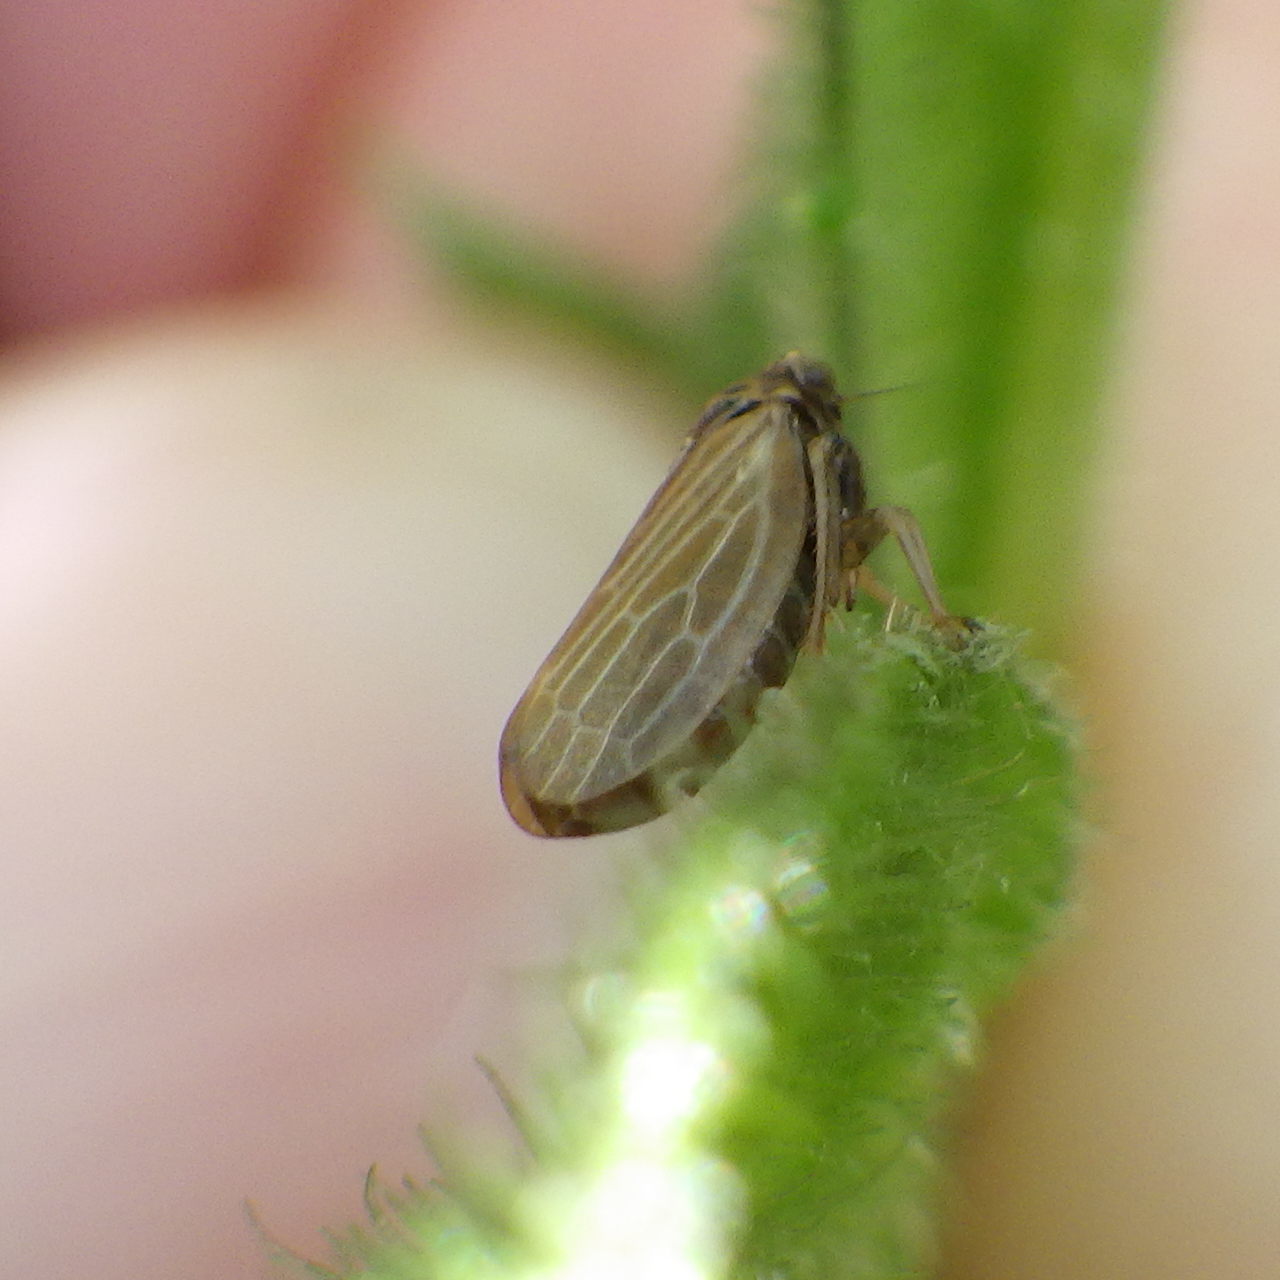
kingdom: Animalia
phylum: Arthropoda
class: Insecta
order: Hemiptera
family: Cicadellidae
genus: Agalliota
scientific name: Agalliota quadripunctata
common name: The four-spotted clover leafhopper
